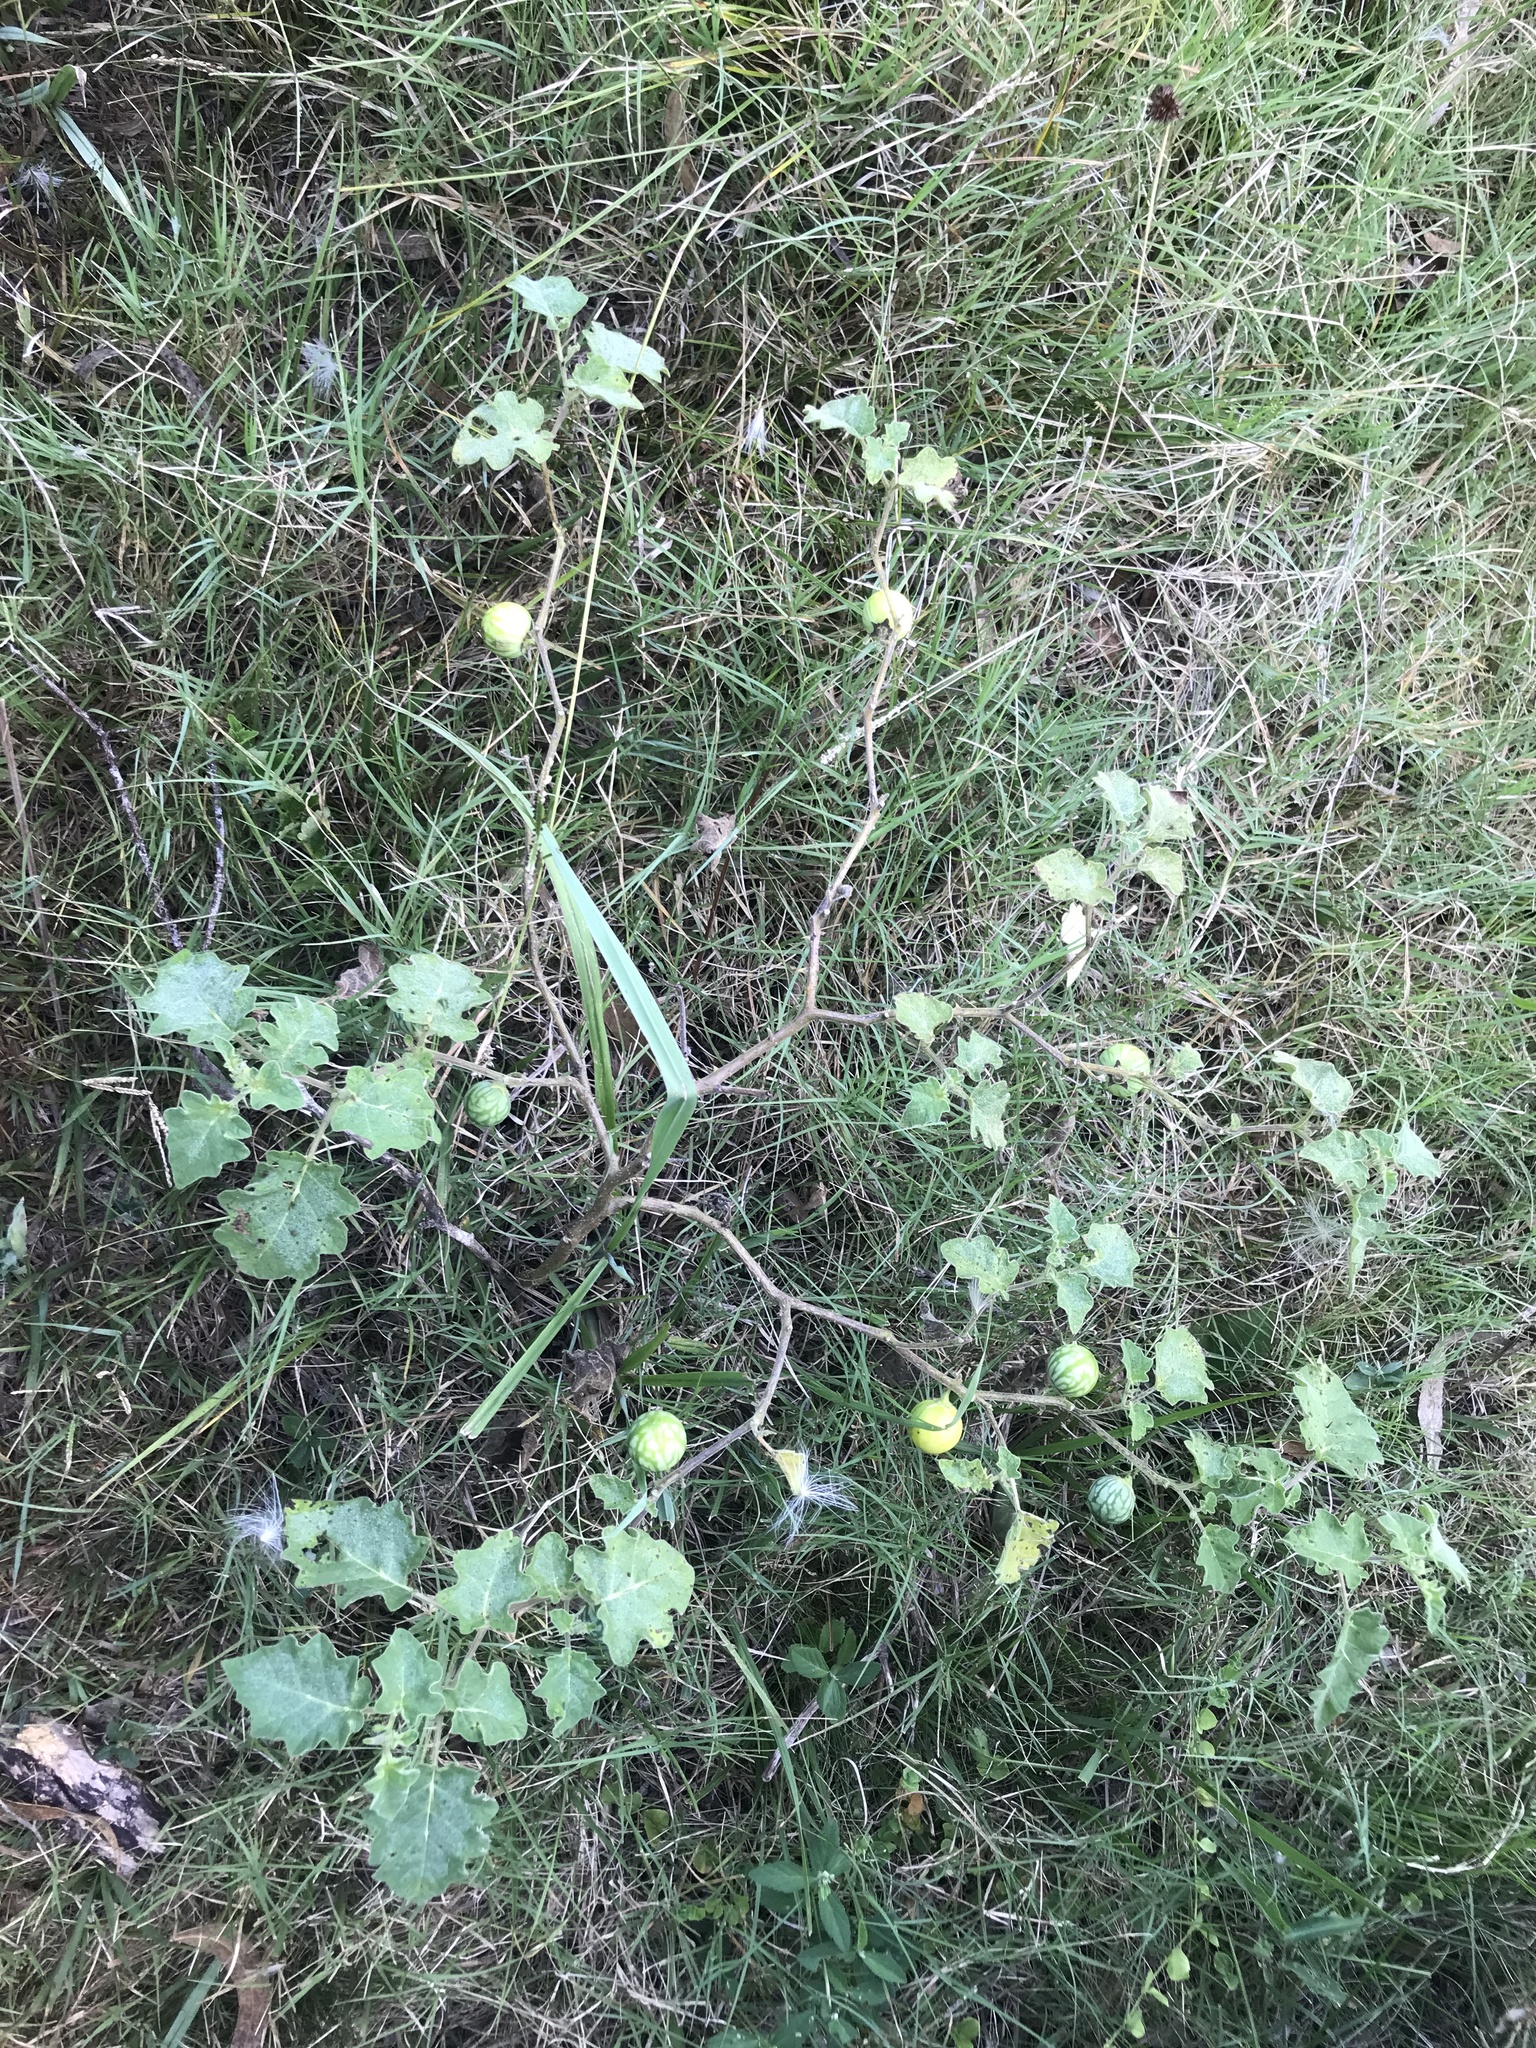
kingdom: Plantae
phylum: Tracheophyta
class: Magnoliopsida
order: Solanales
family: Solanaceae
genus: Solanum
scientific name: Solanum viarum
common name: Tropical soda apple
